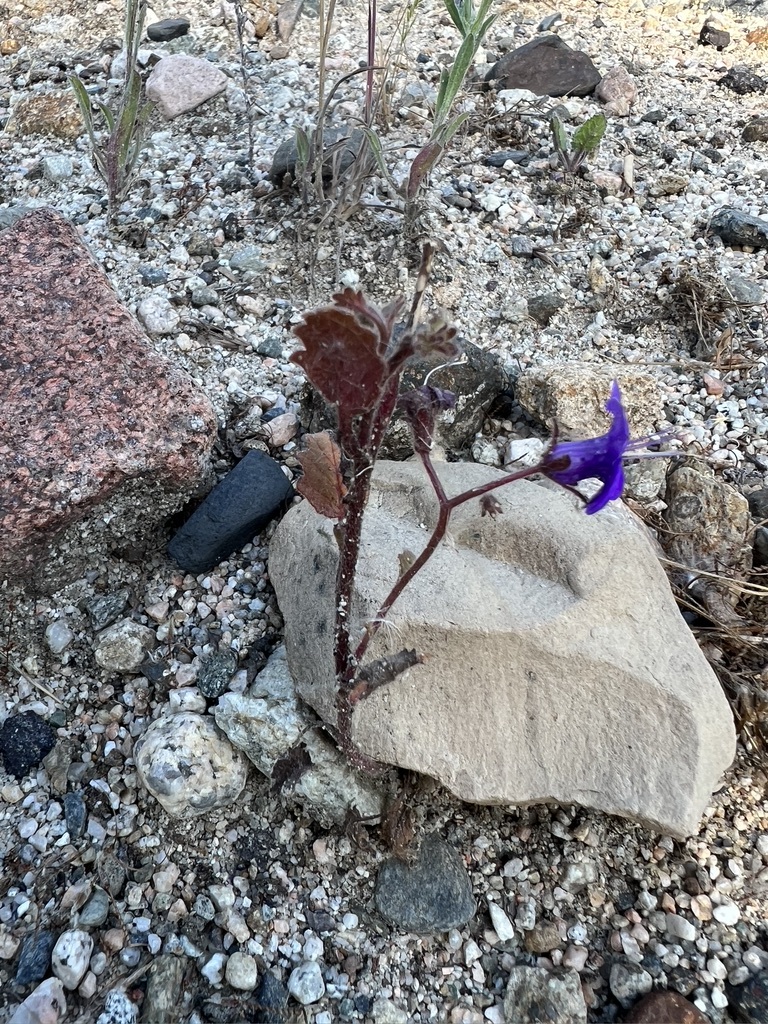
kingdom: Plantae
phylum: Tracheophyta
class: Magnoliopsida
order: Boraginales
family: Hydrophyllaceae
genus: Phacelia
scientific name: Phacelia minor
